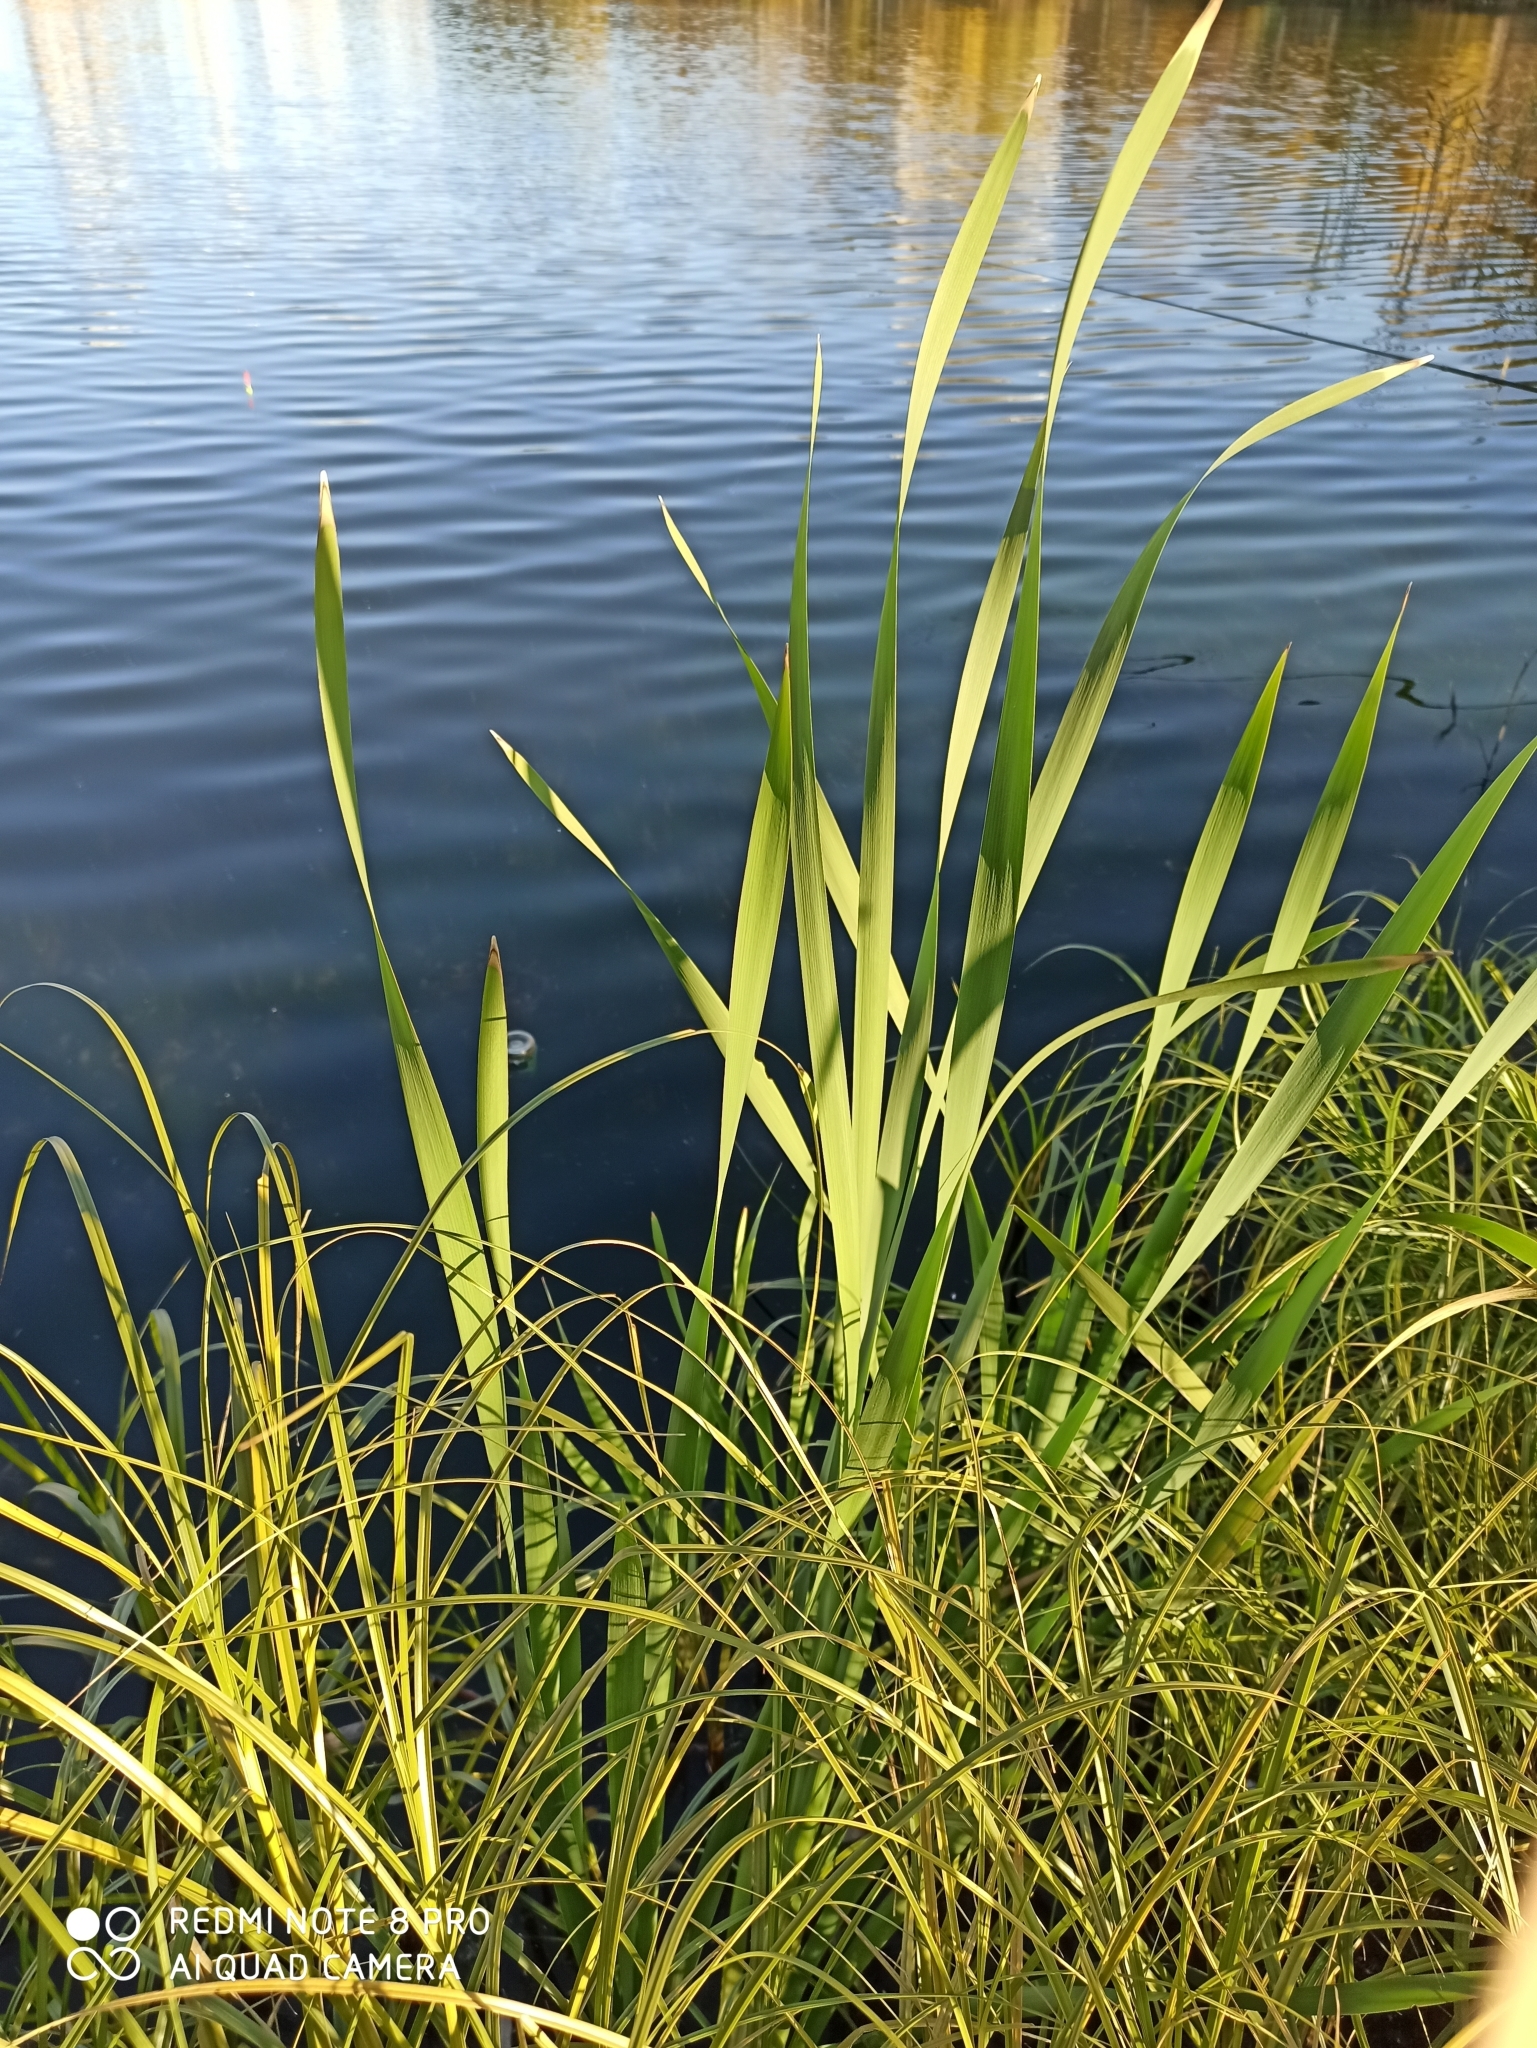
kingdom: Plantae
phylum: Tracheophyta
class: Liliopsida
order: Poales
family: Typhaceae
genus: Typha
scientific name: Typha latifolia
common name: Broadleaf cattail
